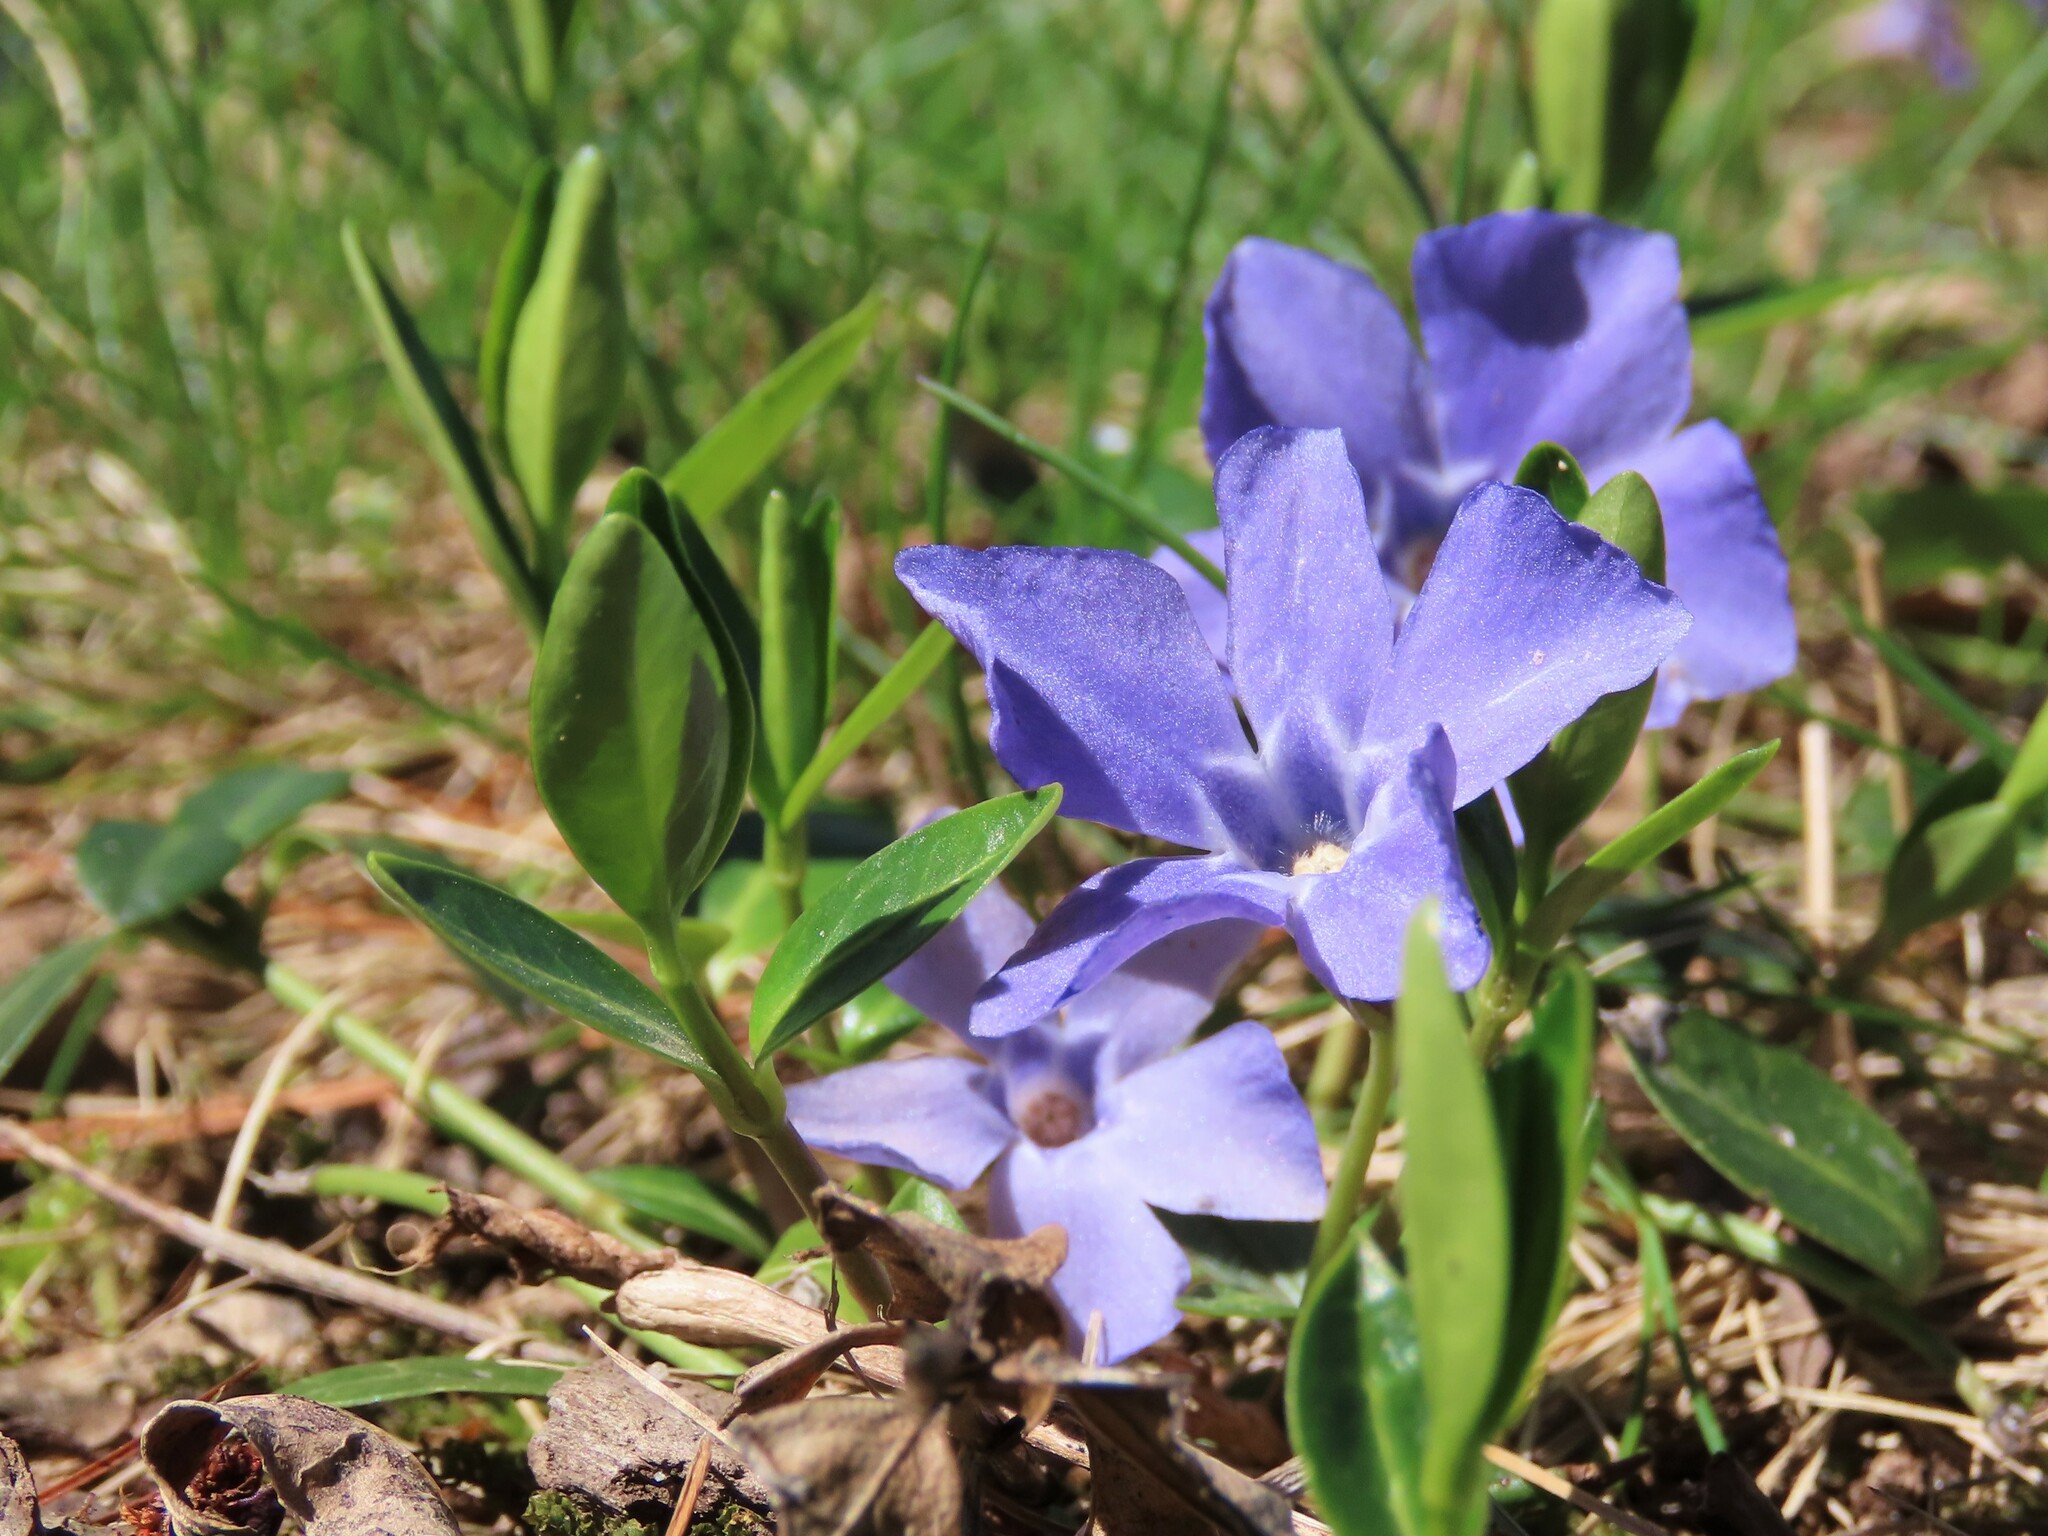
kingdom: Plantae
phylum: Tracheophyta
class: Magnoliopsida
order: Gentianales
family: Apocynaceae
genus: Vinca
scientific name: Vinca minor
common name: Lesser periwinkle
